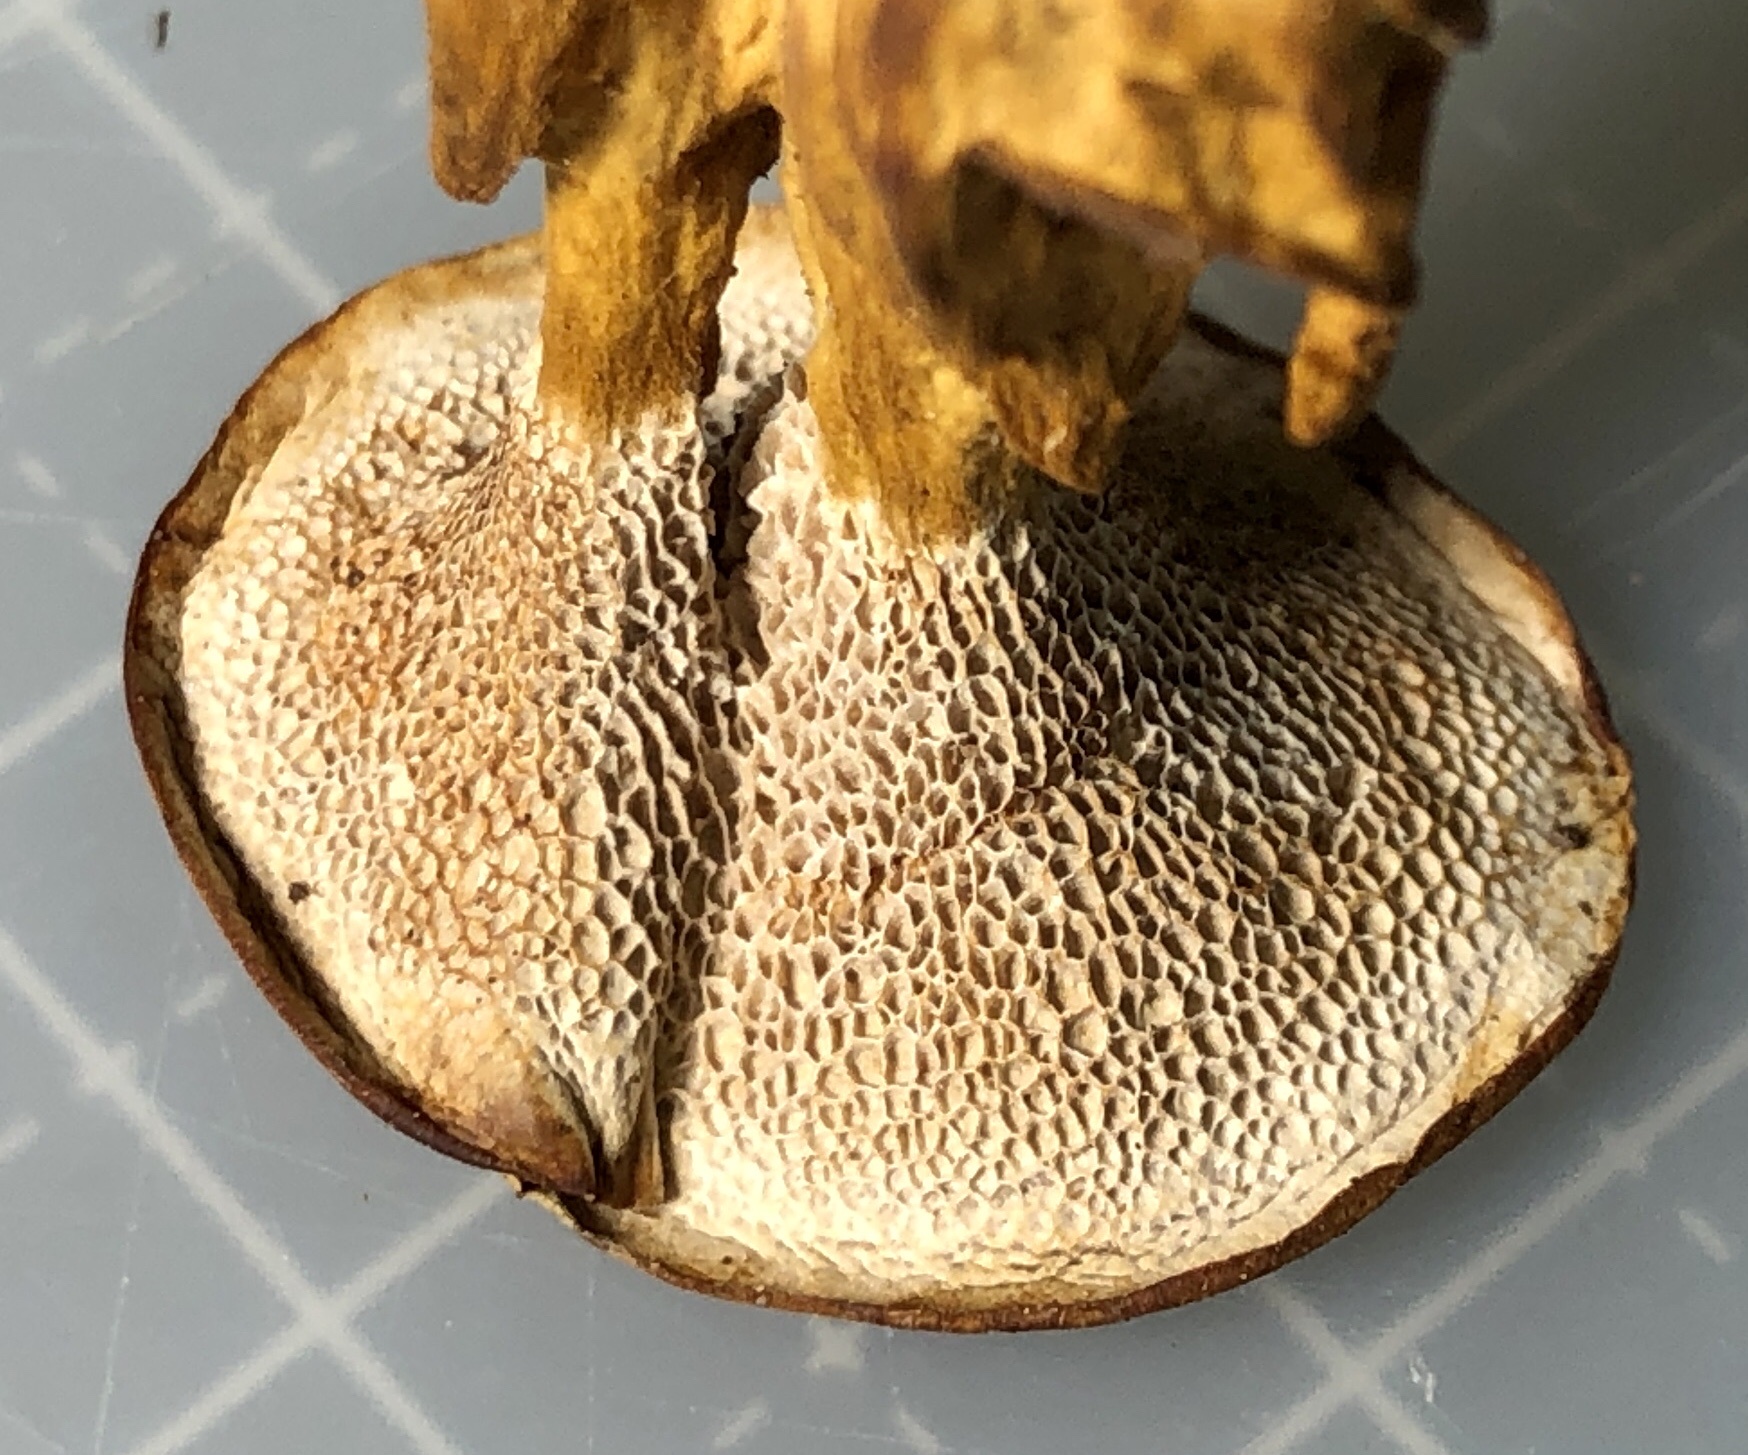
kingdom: Fungi
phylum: Basidiomycota
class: Agaricomycetes
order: Hymenochaetales
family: Hymenochaetaceae
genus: Coltricia
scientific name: Coltricia perennis
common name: Tiger's eye
